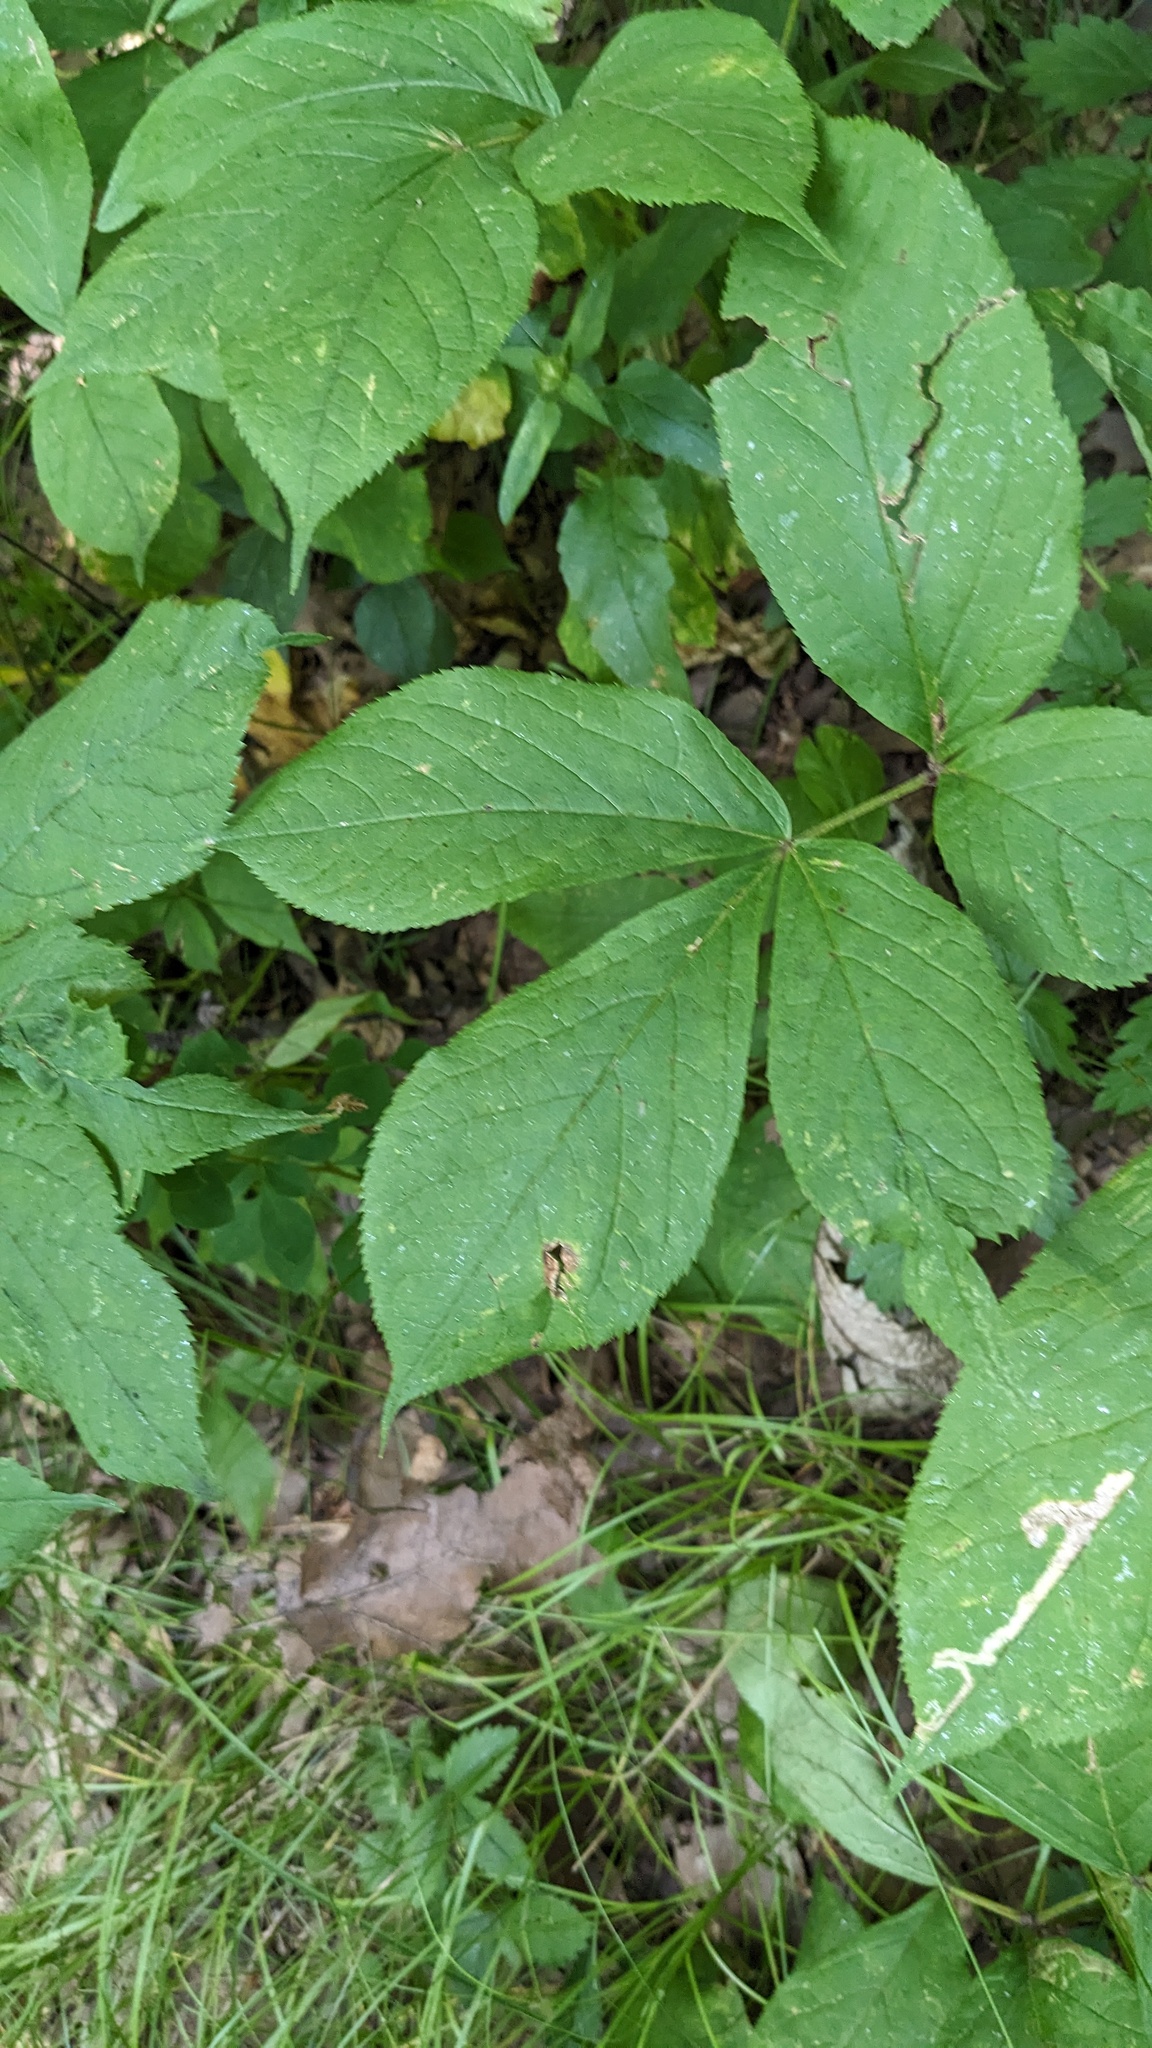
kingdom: Plantae
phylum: Tracheophyta
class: Magnoliopsida
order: Apiales
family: Araliaceae
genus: Aralia
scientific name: Aralia nudicaulis
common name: Wild sarsaparilla
